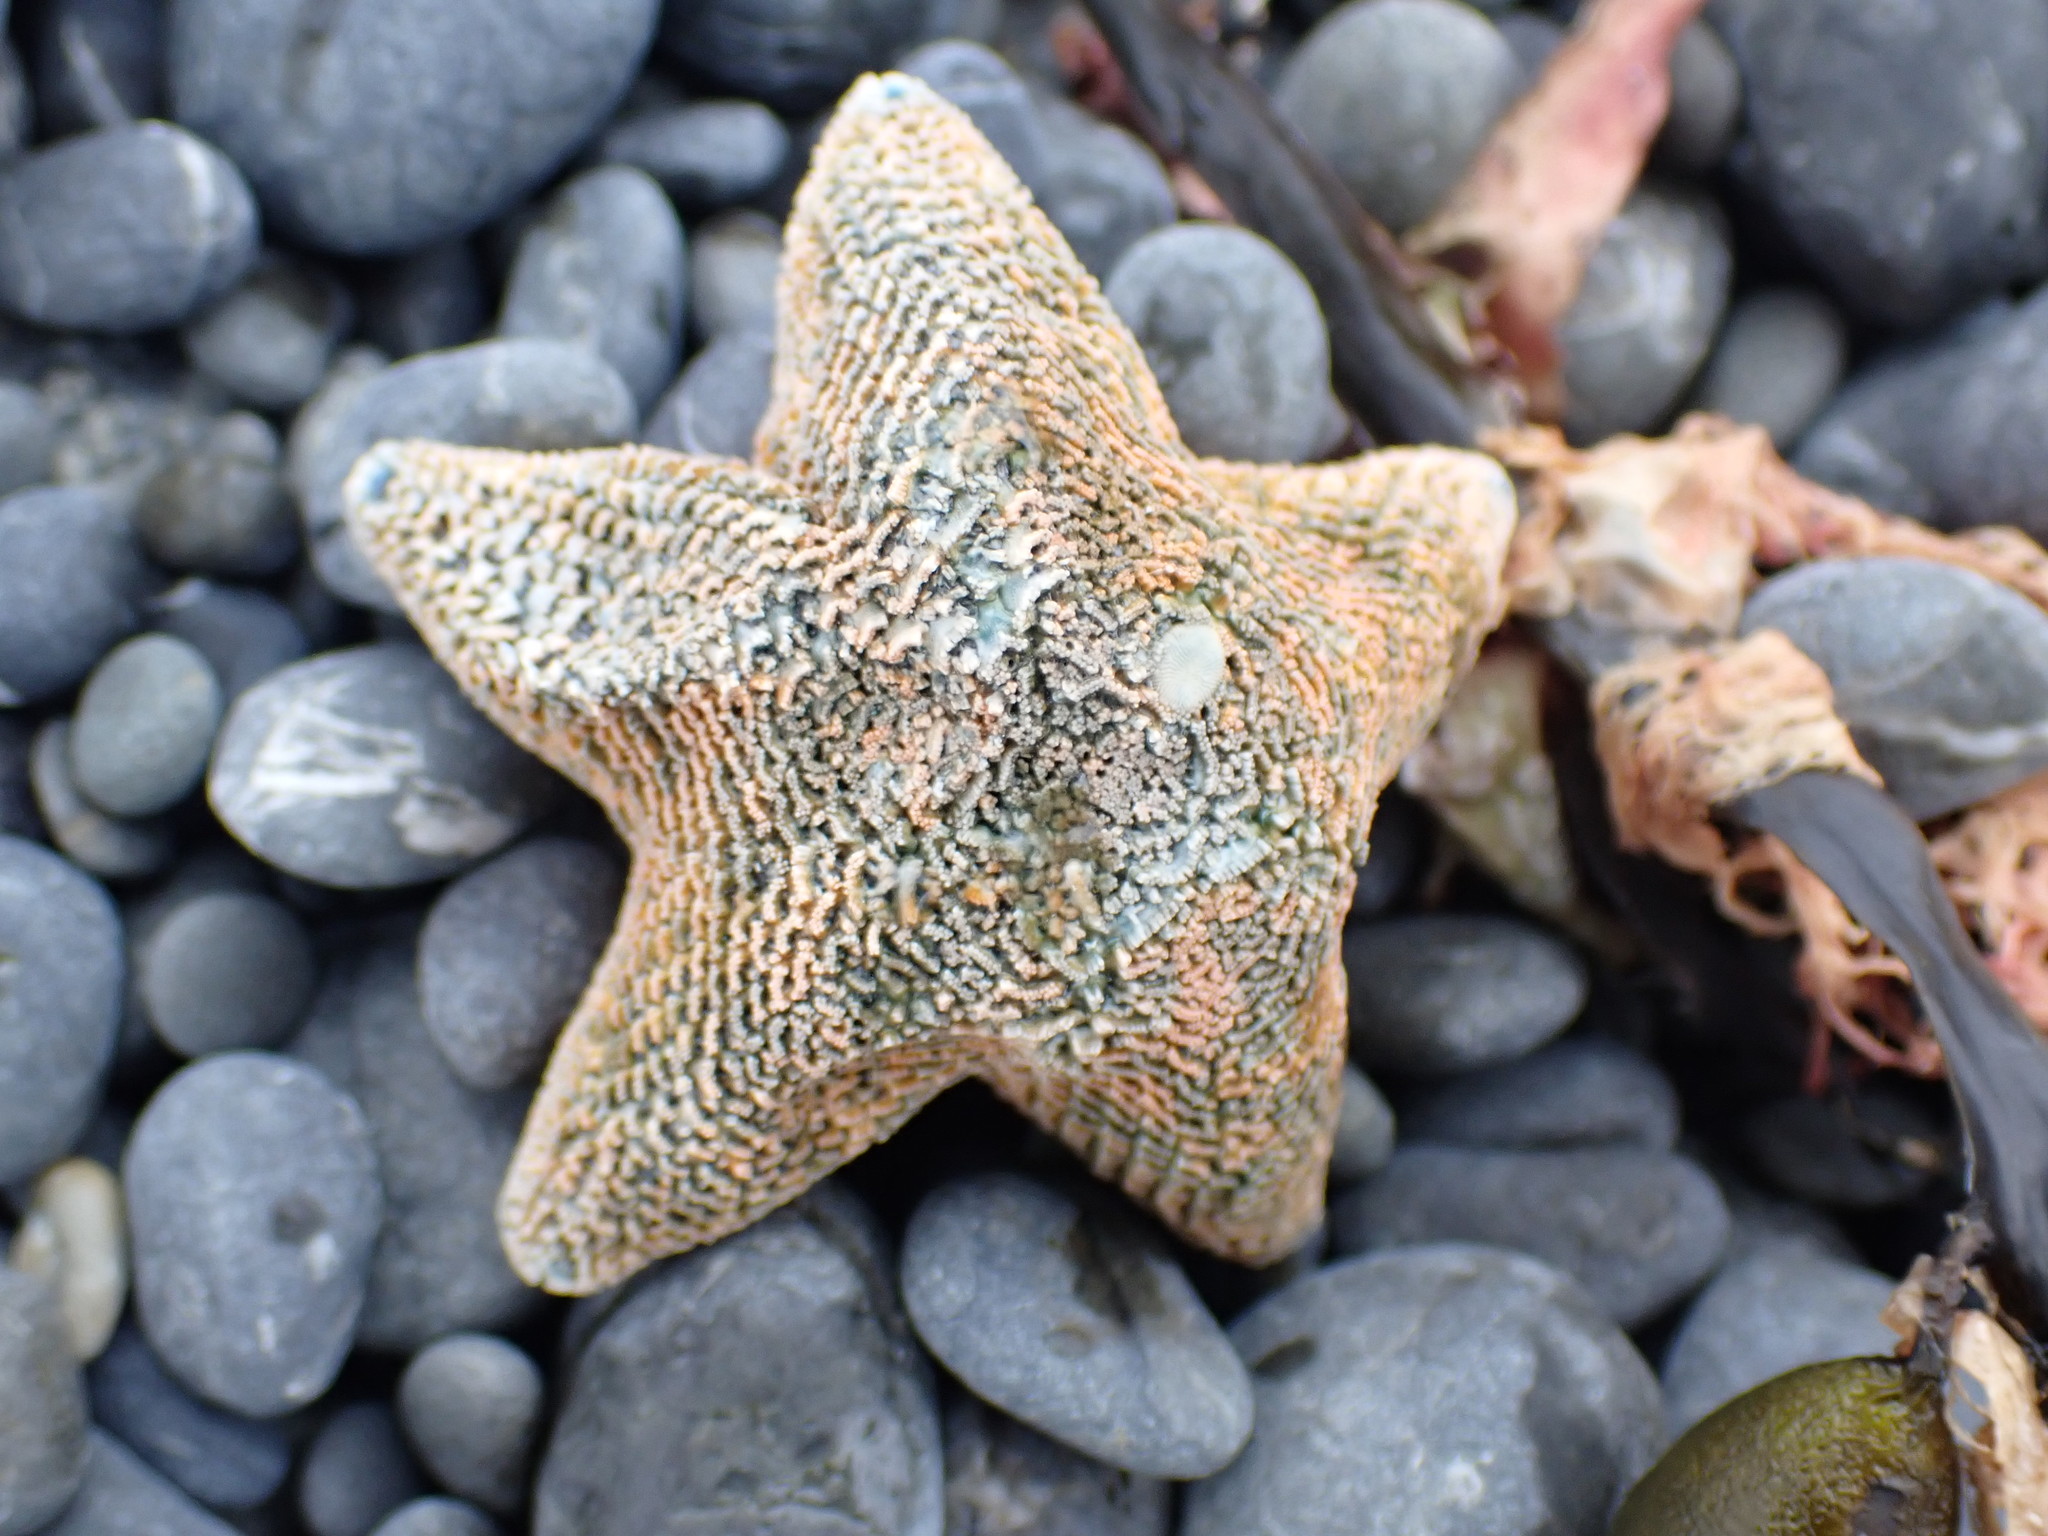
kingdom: Animalia
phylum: Echinodermata
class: Asteroidea
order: Valvatida
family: Asterinidae
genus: Patiriella
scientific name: Patiriella regularis
